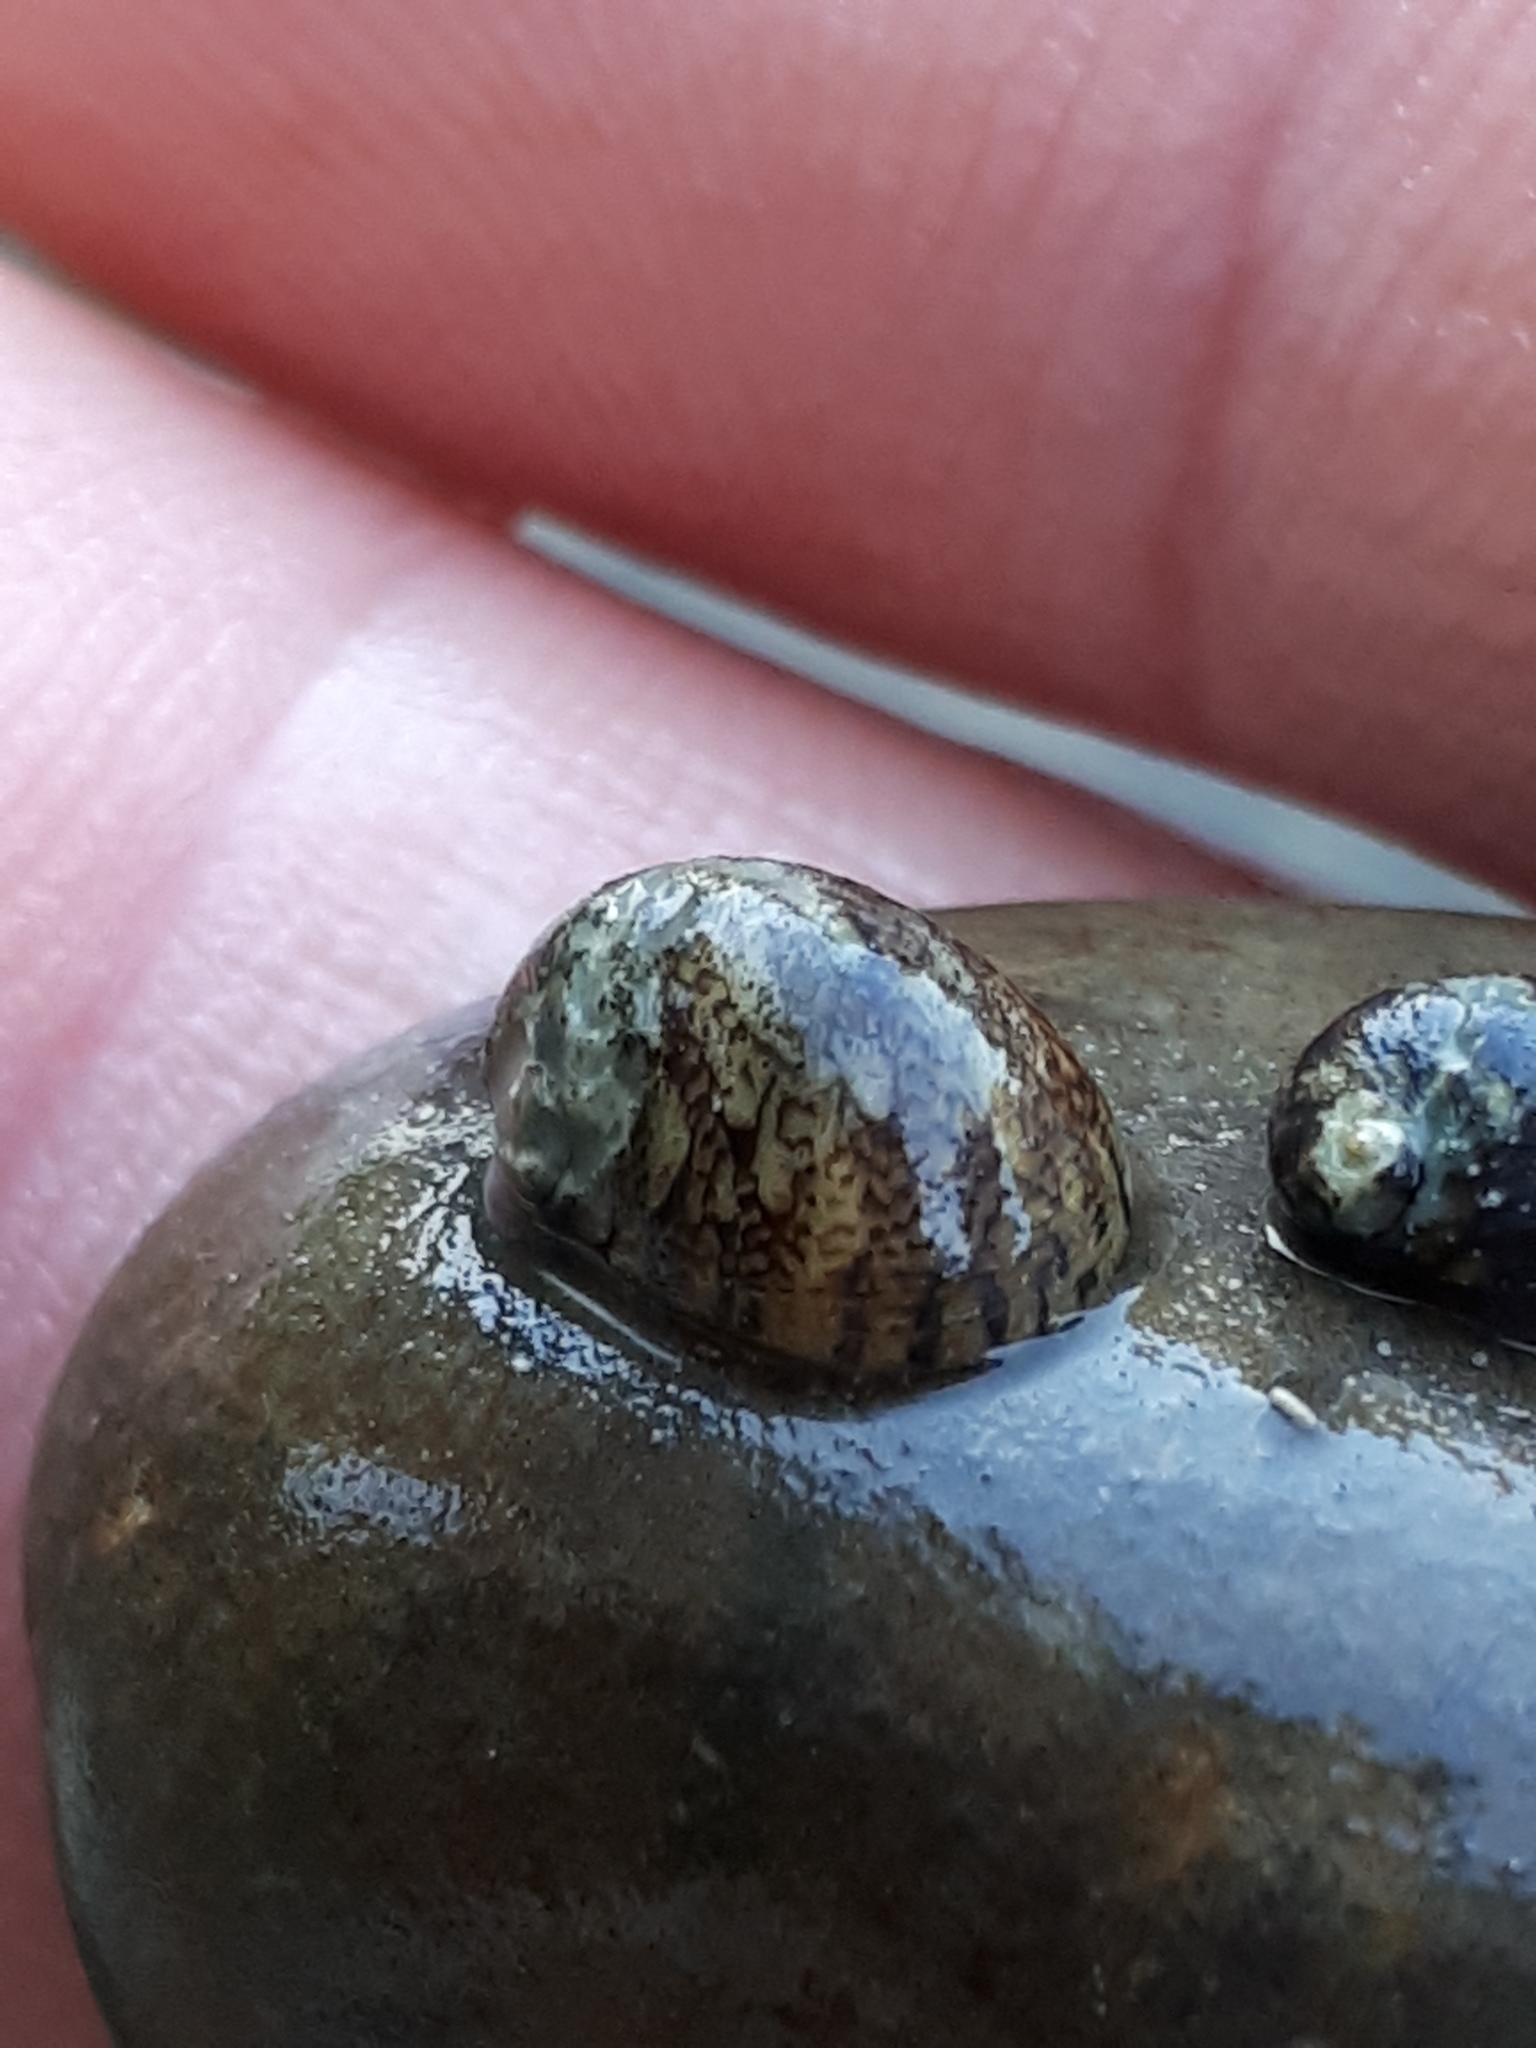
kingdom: Animalia
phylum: Mollusca
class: Gastropoda
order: Cycloneritida
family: Neritidae
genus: Theodoxus
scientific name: Theodoxus fluviatilis
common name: River nerite
